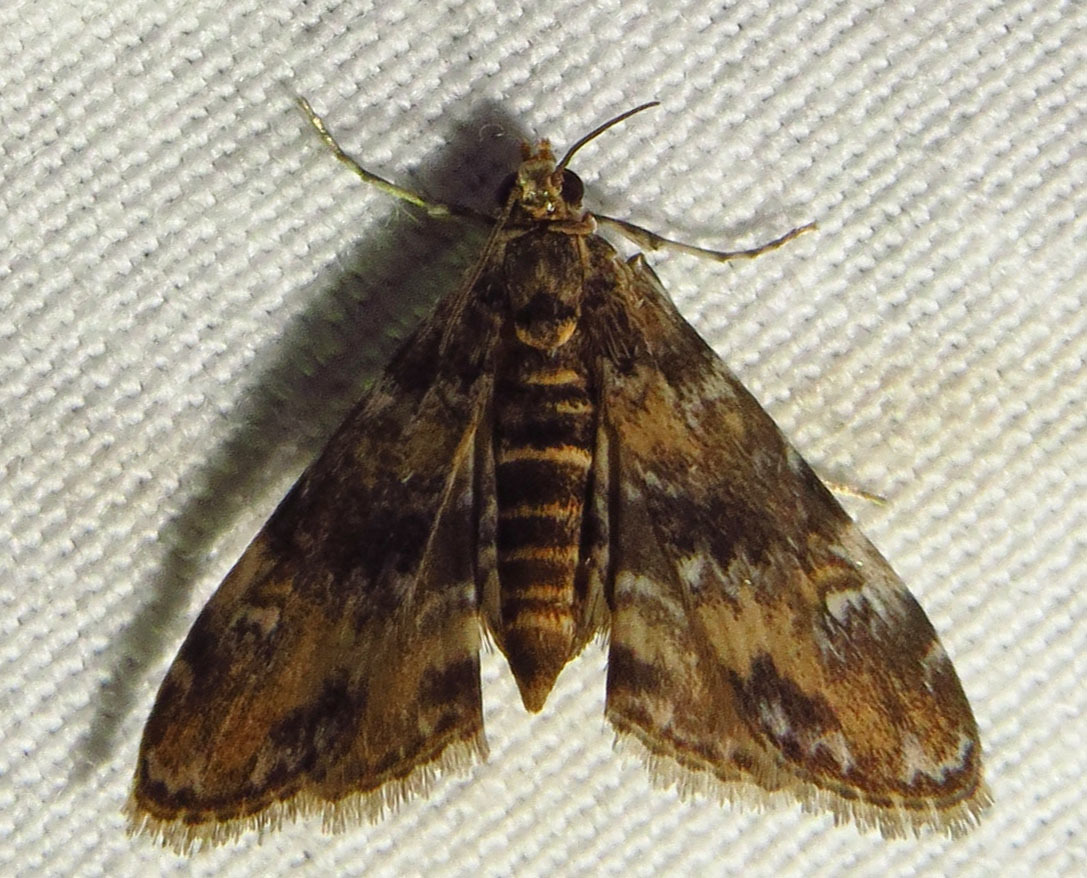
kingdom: Animalia
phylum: Arthropoda
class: Insecta
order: Lepidoptera
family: Crambidae
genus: Elophila
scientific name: Elophila obliteralis
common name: Waterlily leafcutter moth
